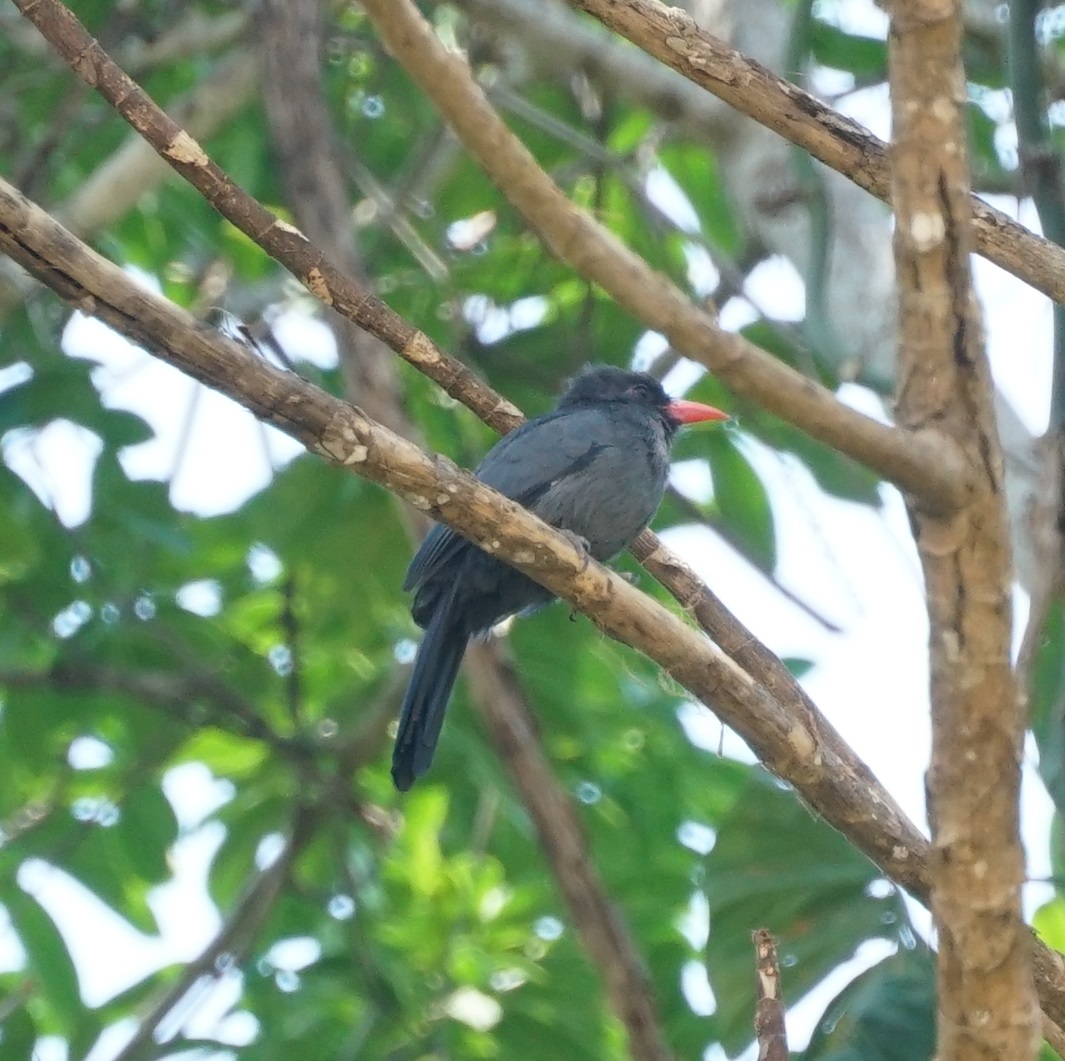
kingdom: Animalia
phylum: Chordata
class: Aves
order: Piciformes
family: Bucconidae
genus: Monasa
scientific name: Monasa nigrifrons
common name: Black-fronted nunbird
